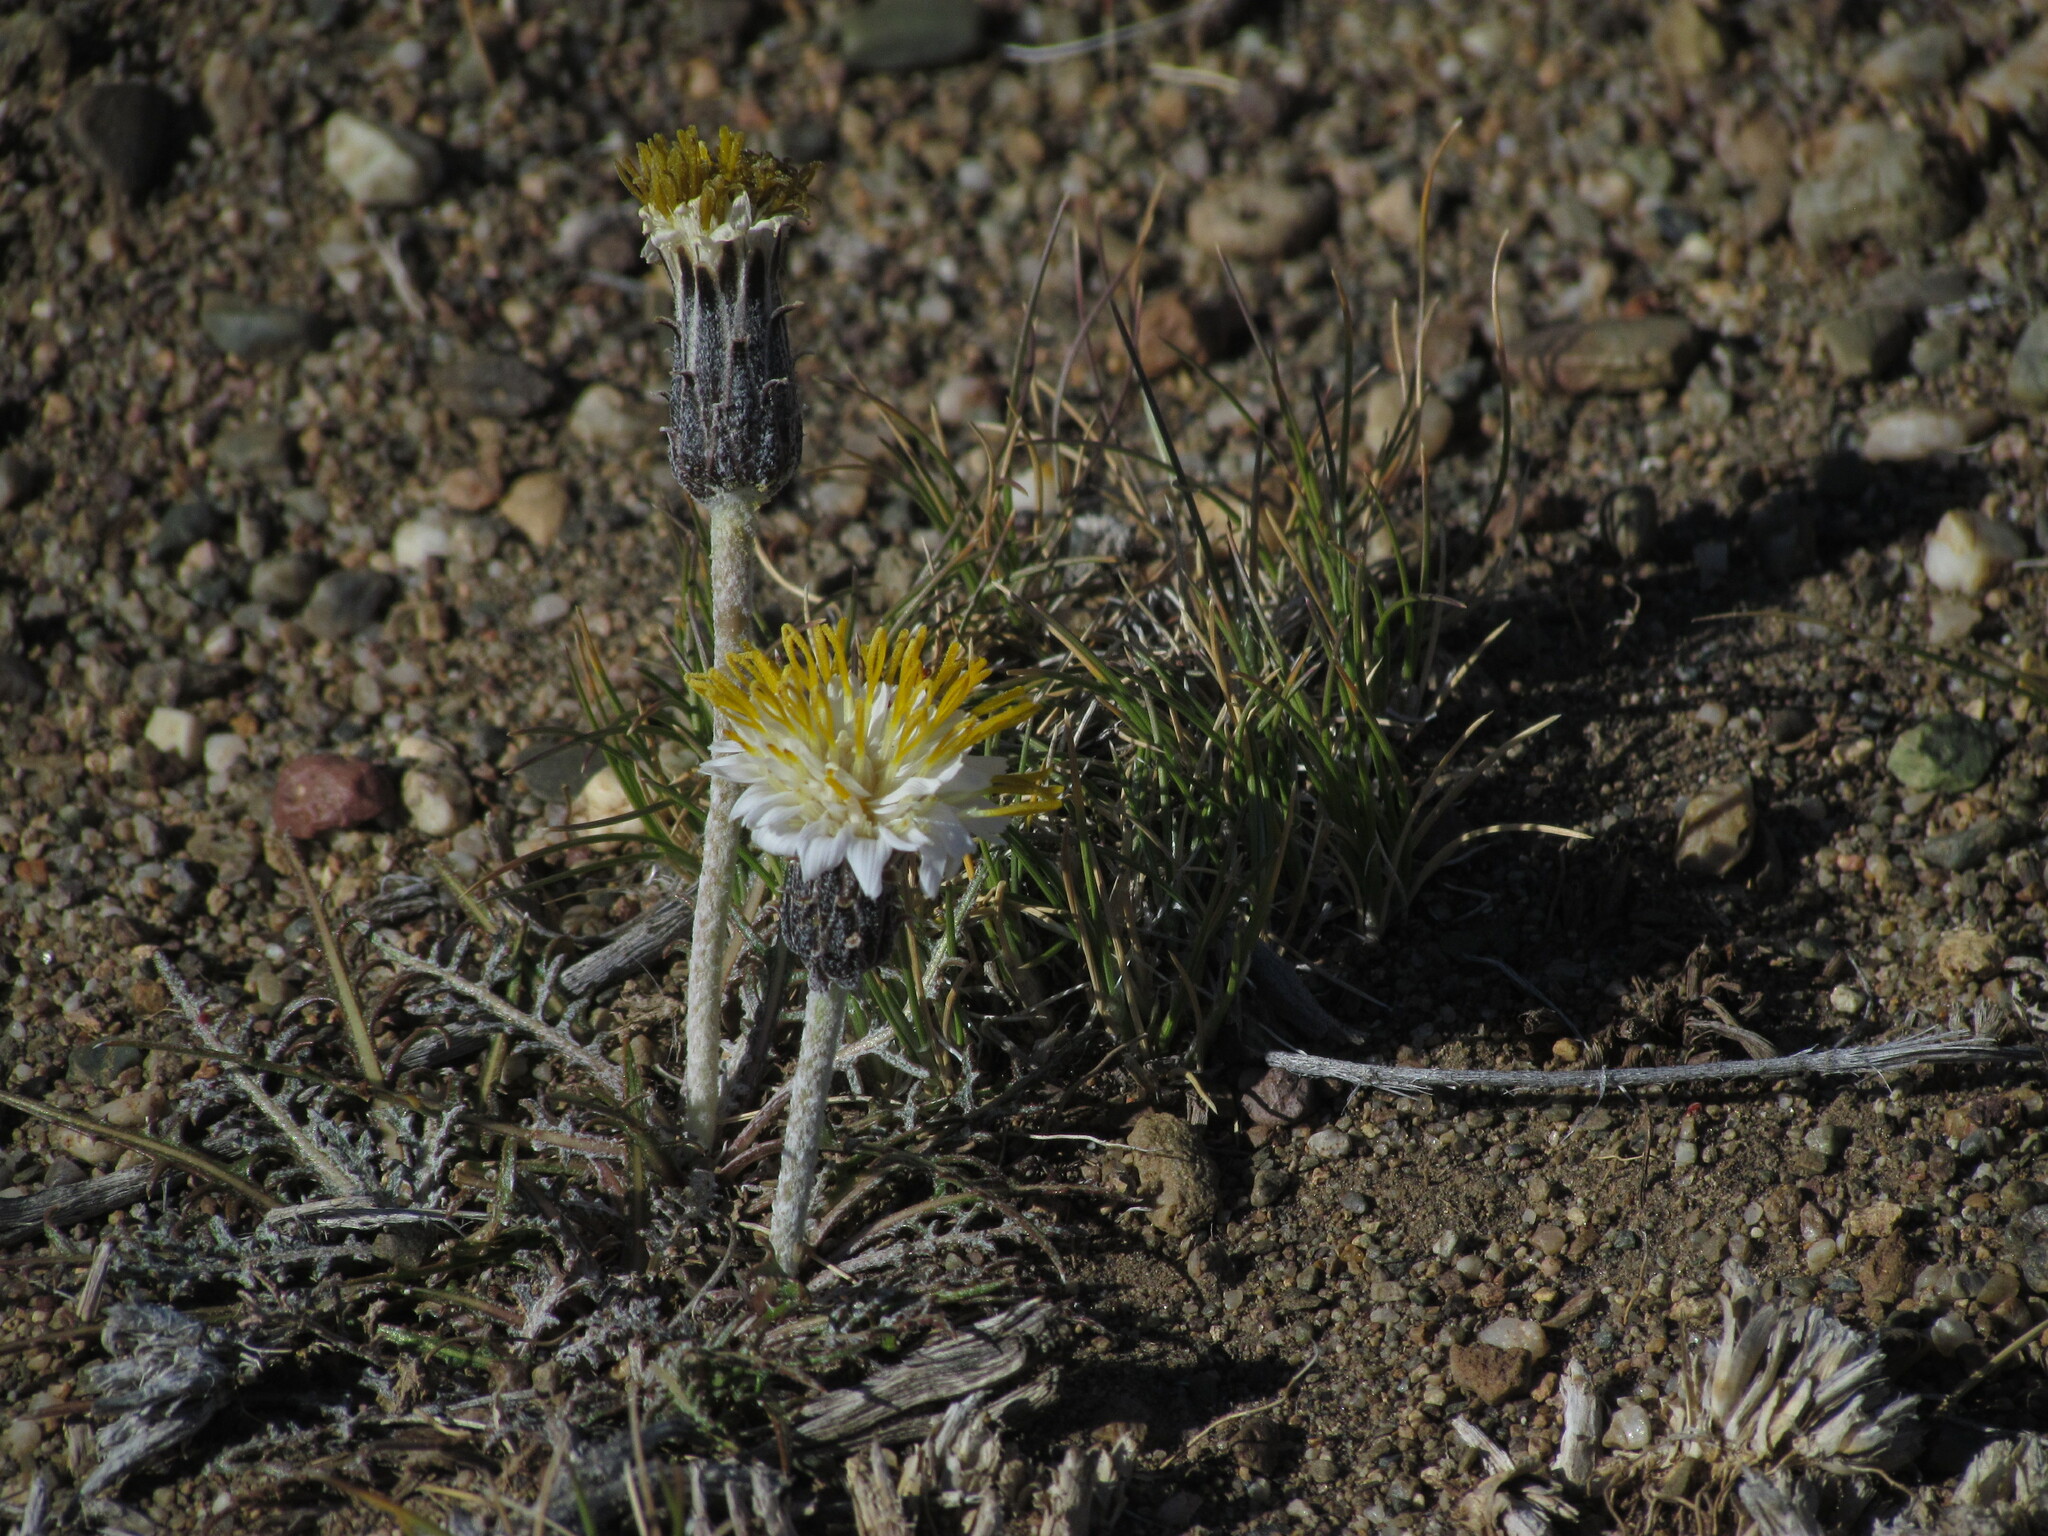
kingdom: Plantae
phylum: Tracheophyta
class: Magnoliopsida
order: Asterales
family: Asteraceae
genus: Hypochaeris
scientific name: Hypochaeris incana
